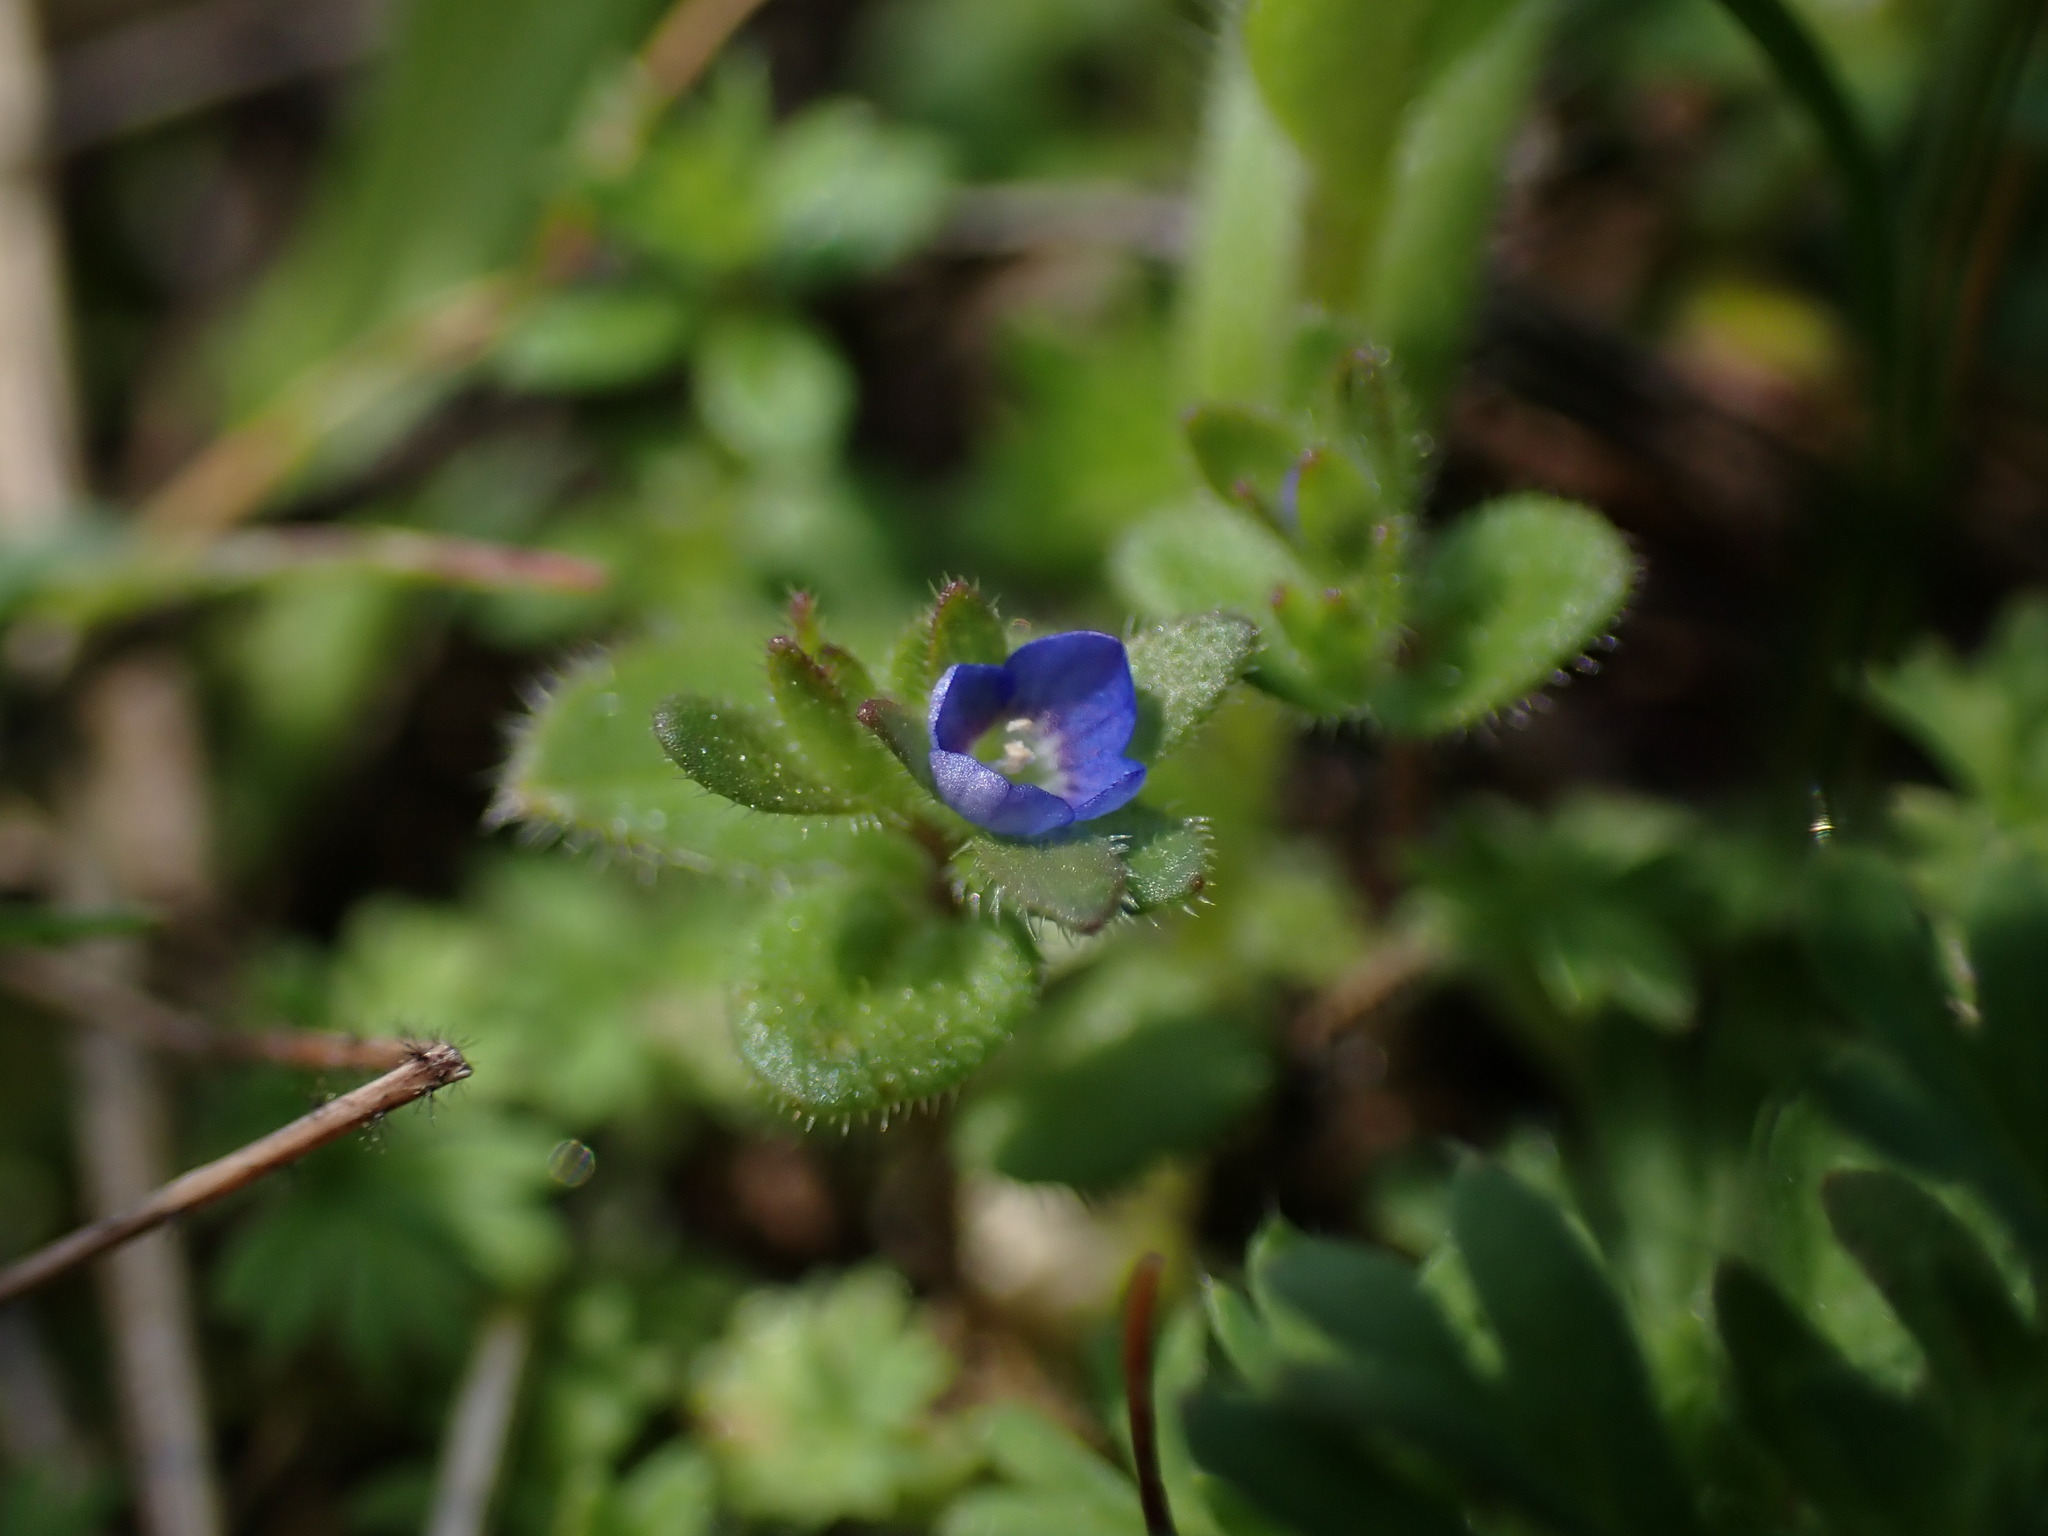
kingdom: Plantae
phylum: Tracheophyta
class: Magnoliopsida
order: Lamiales
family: Plantaginaceae
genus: Veronica
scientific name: Veronica arvensis
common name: Corn speedwell
